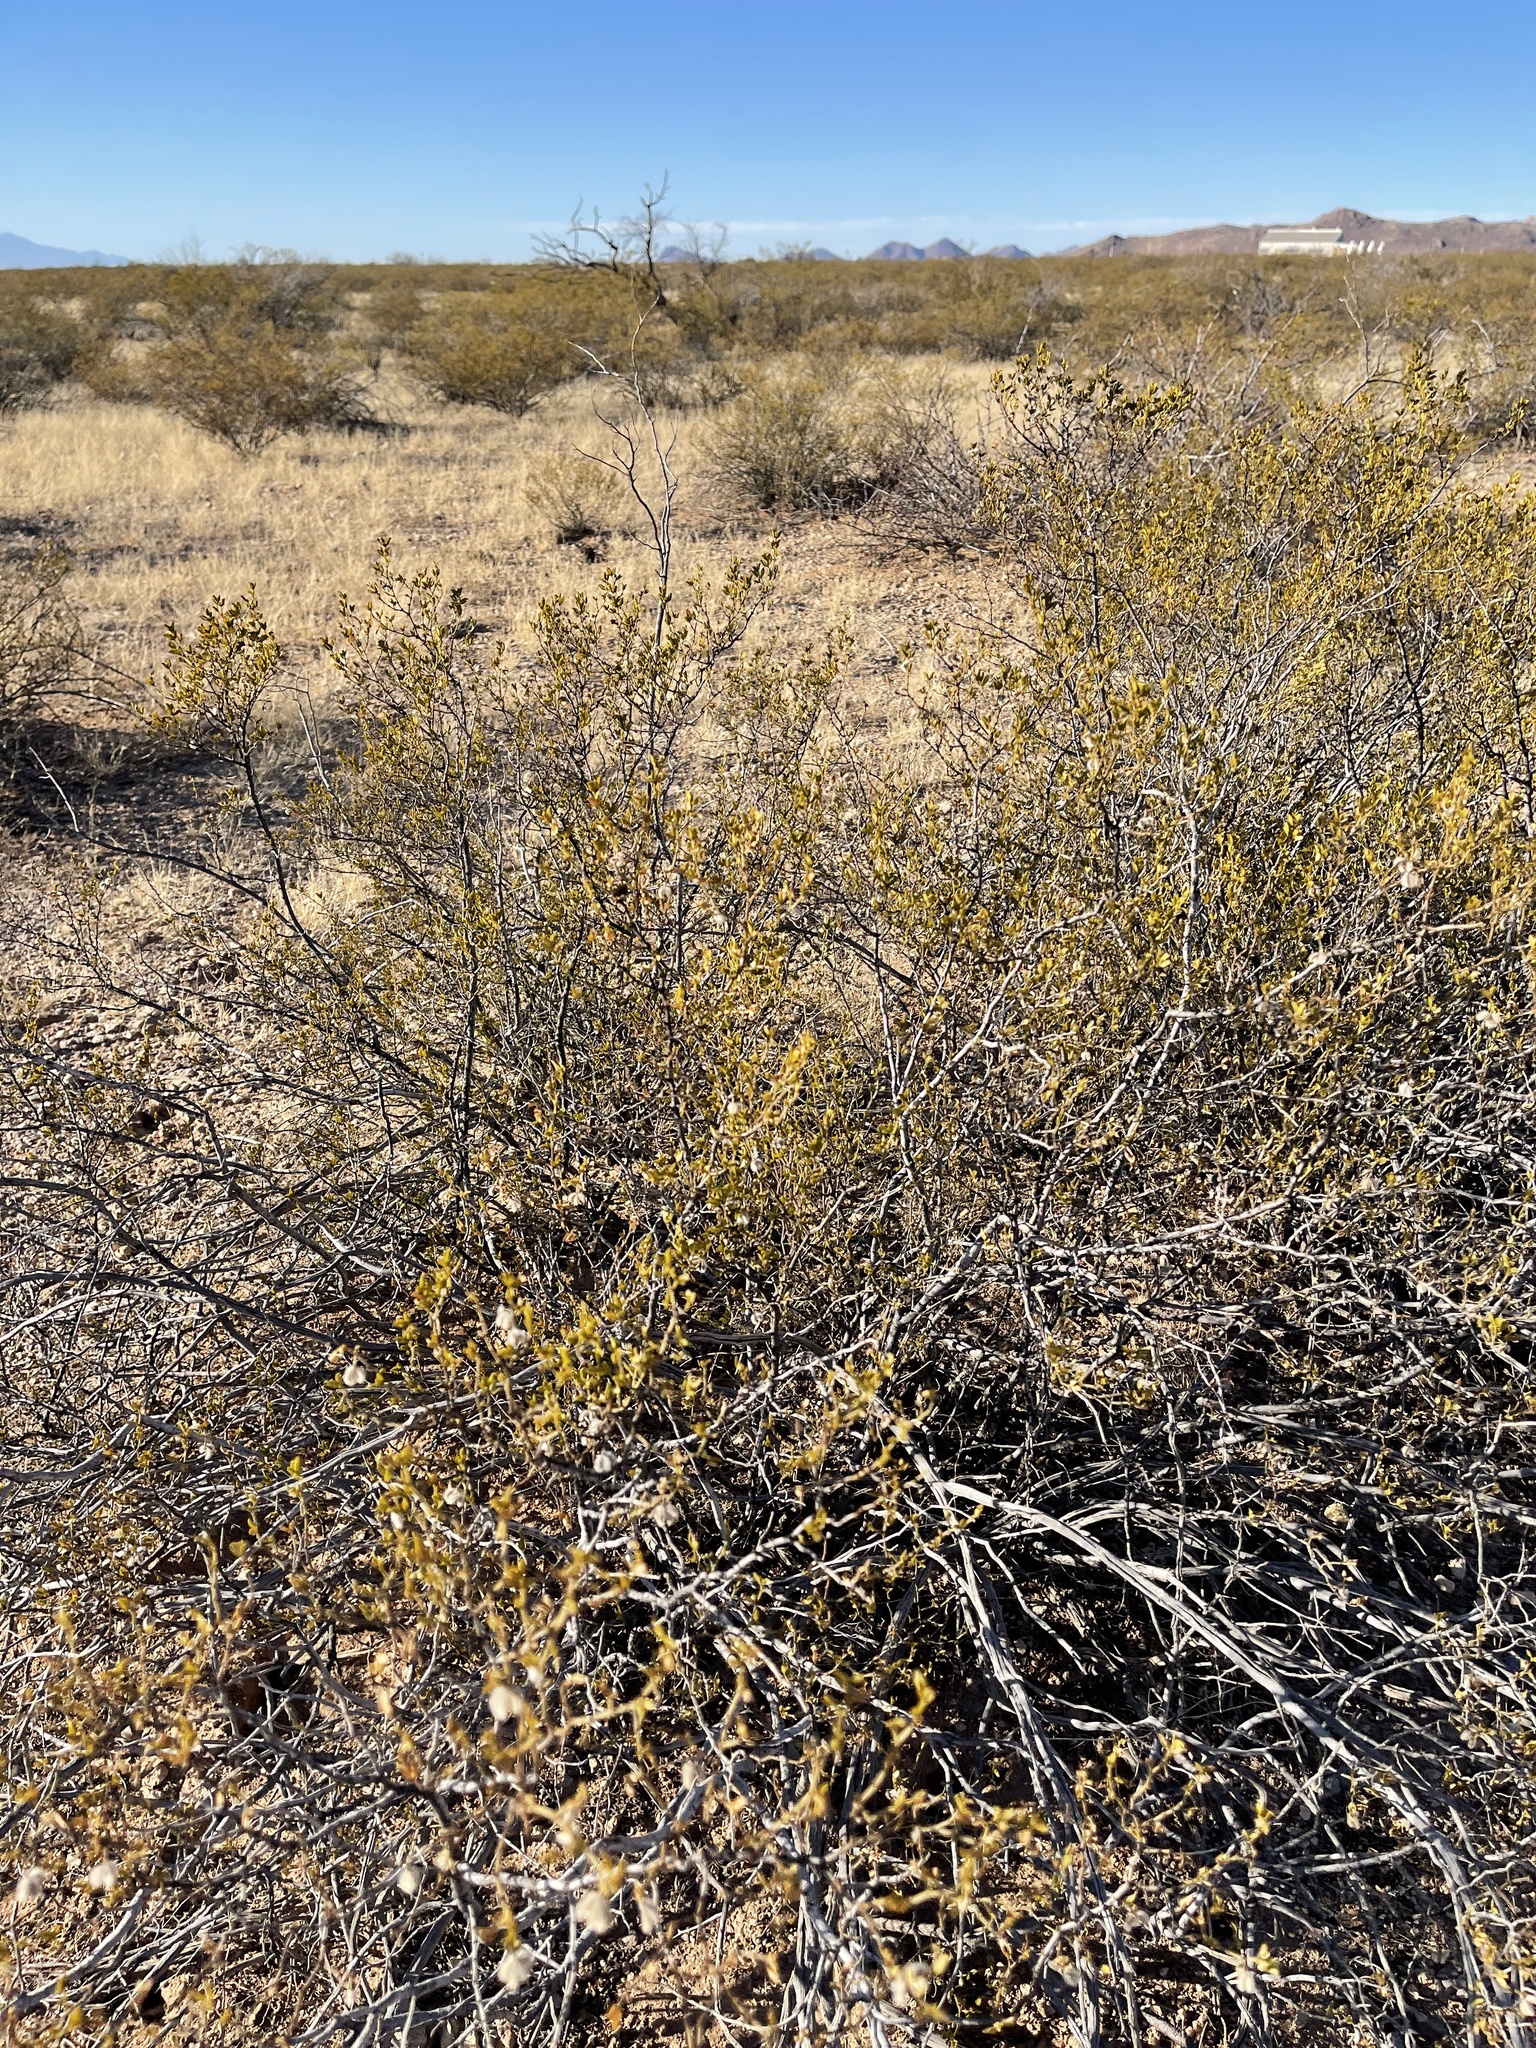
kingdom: Plantae
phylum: Tracheophyta
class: Magnoliopsida
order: Zygophyllales
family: Zygophyllaceae
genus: Larrea
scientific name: Larrea tridentata
